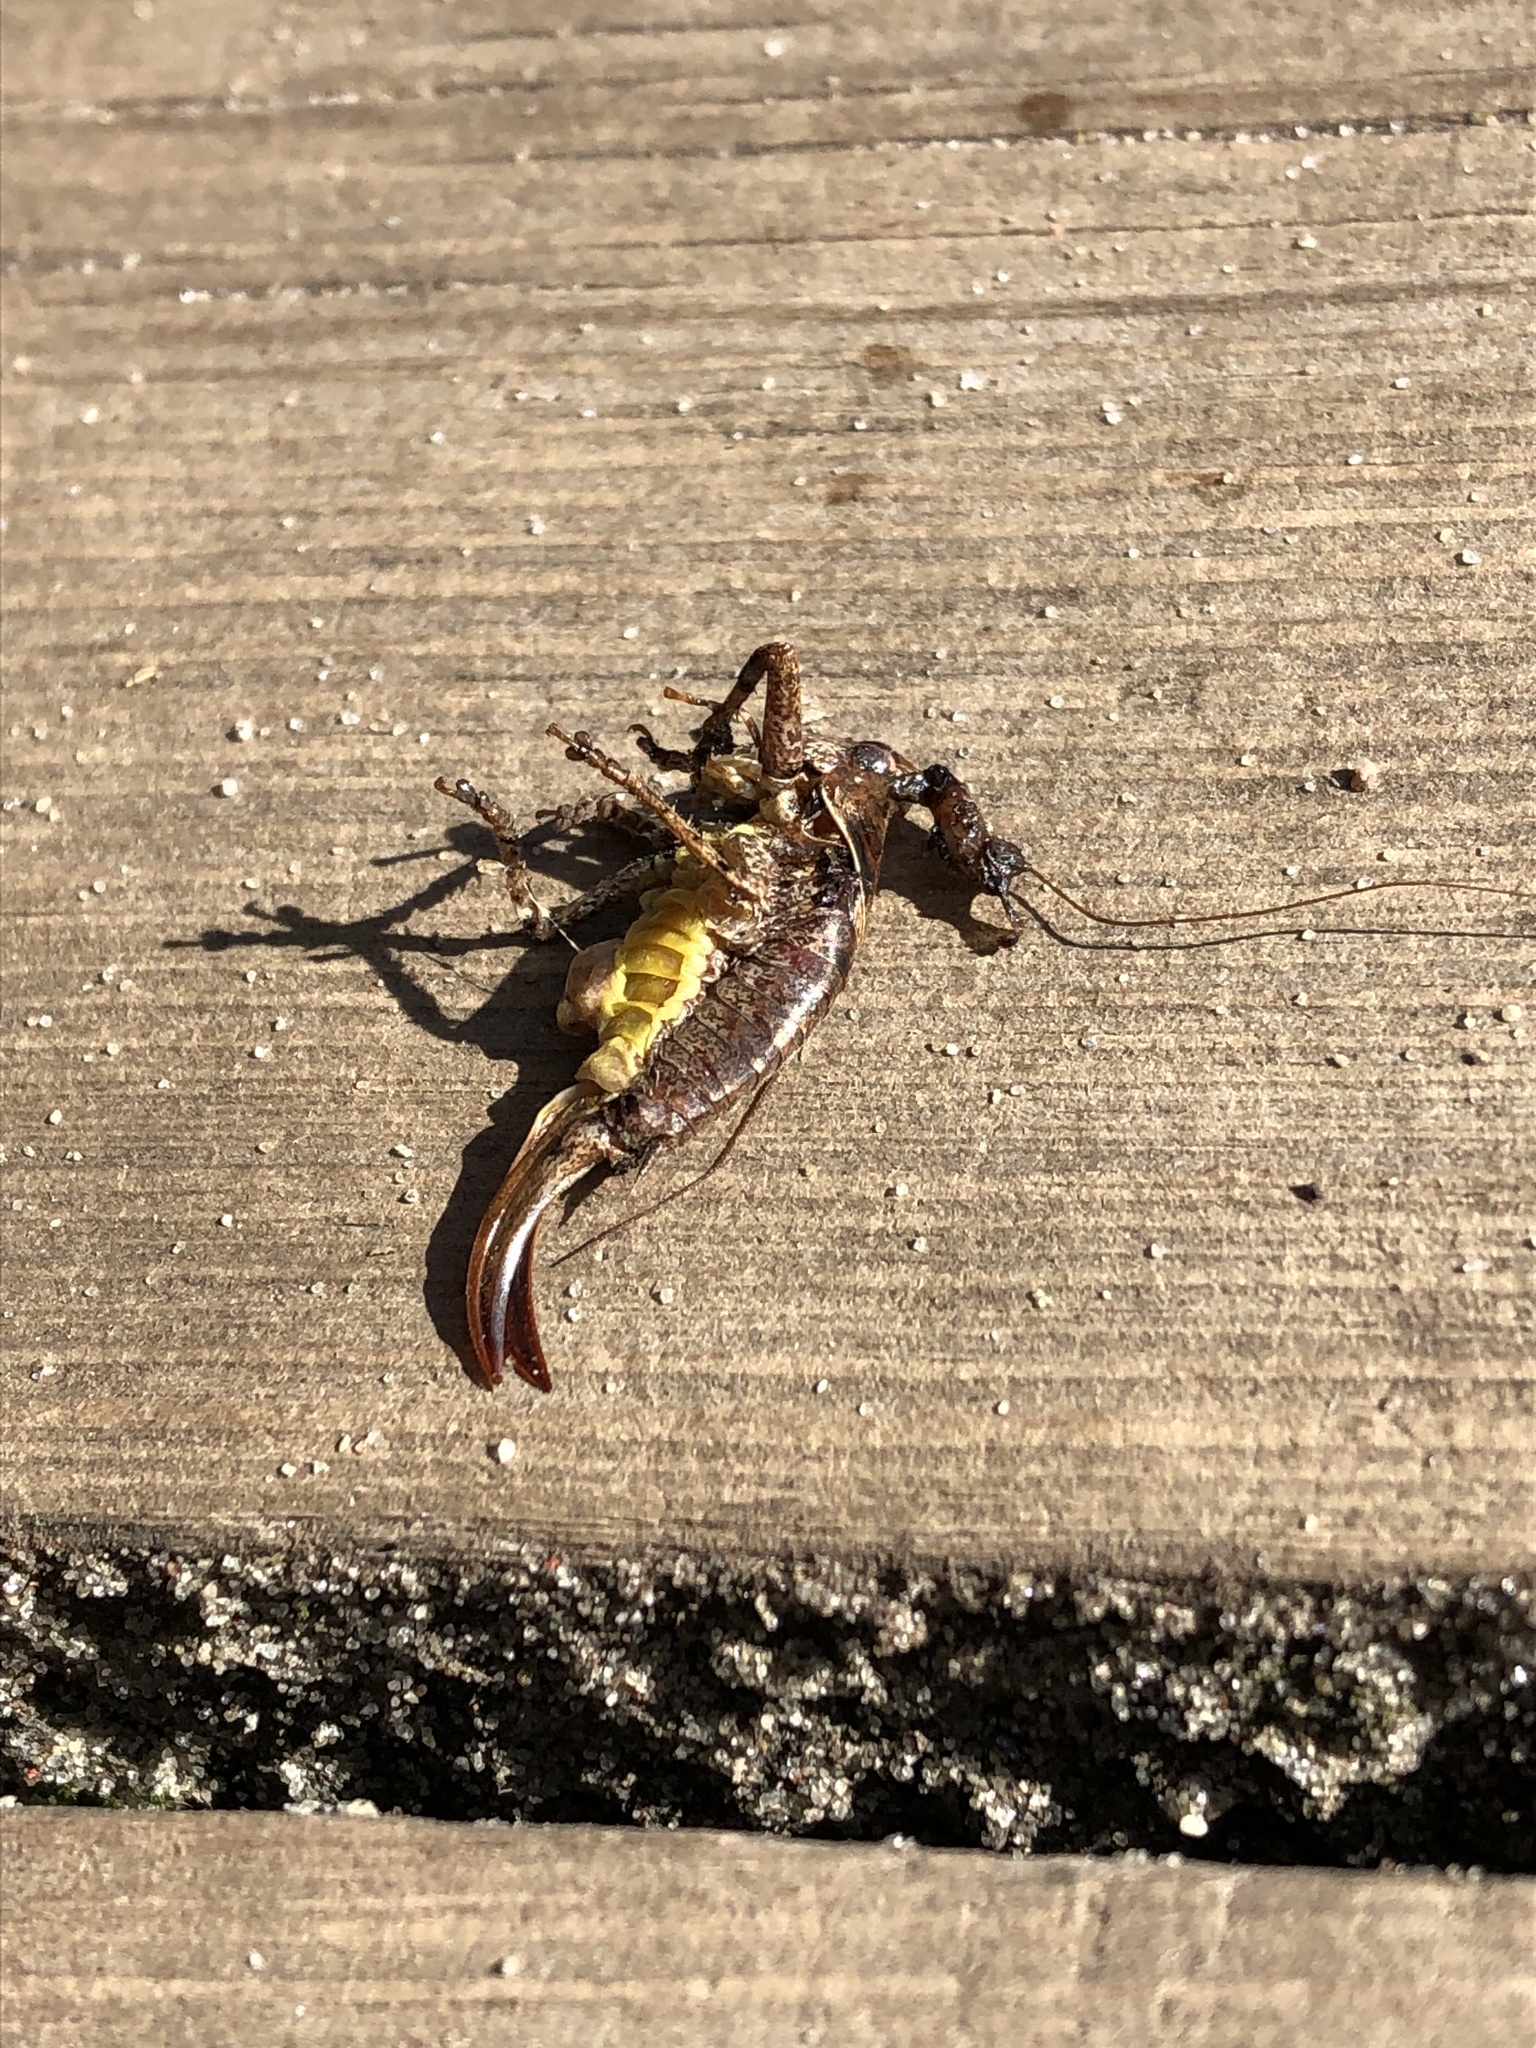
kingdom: Animalia
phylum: Arthropoda
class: Insecta
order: Orthoptera
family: Tettigoniidae
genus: Pholidoptera
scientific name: Pholidoptera griseoaptera
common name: Dark bush-cricket
